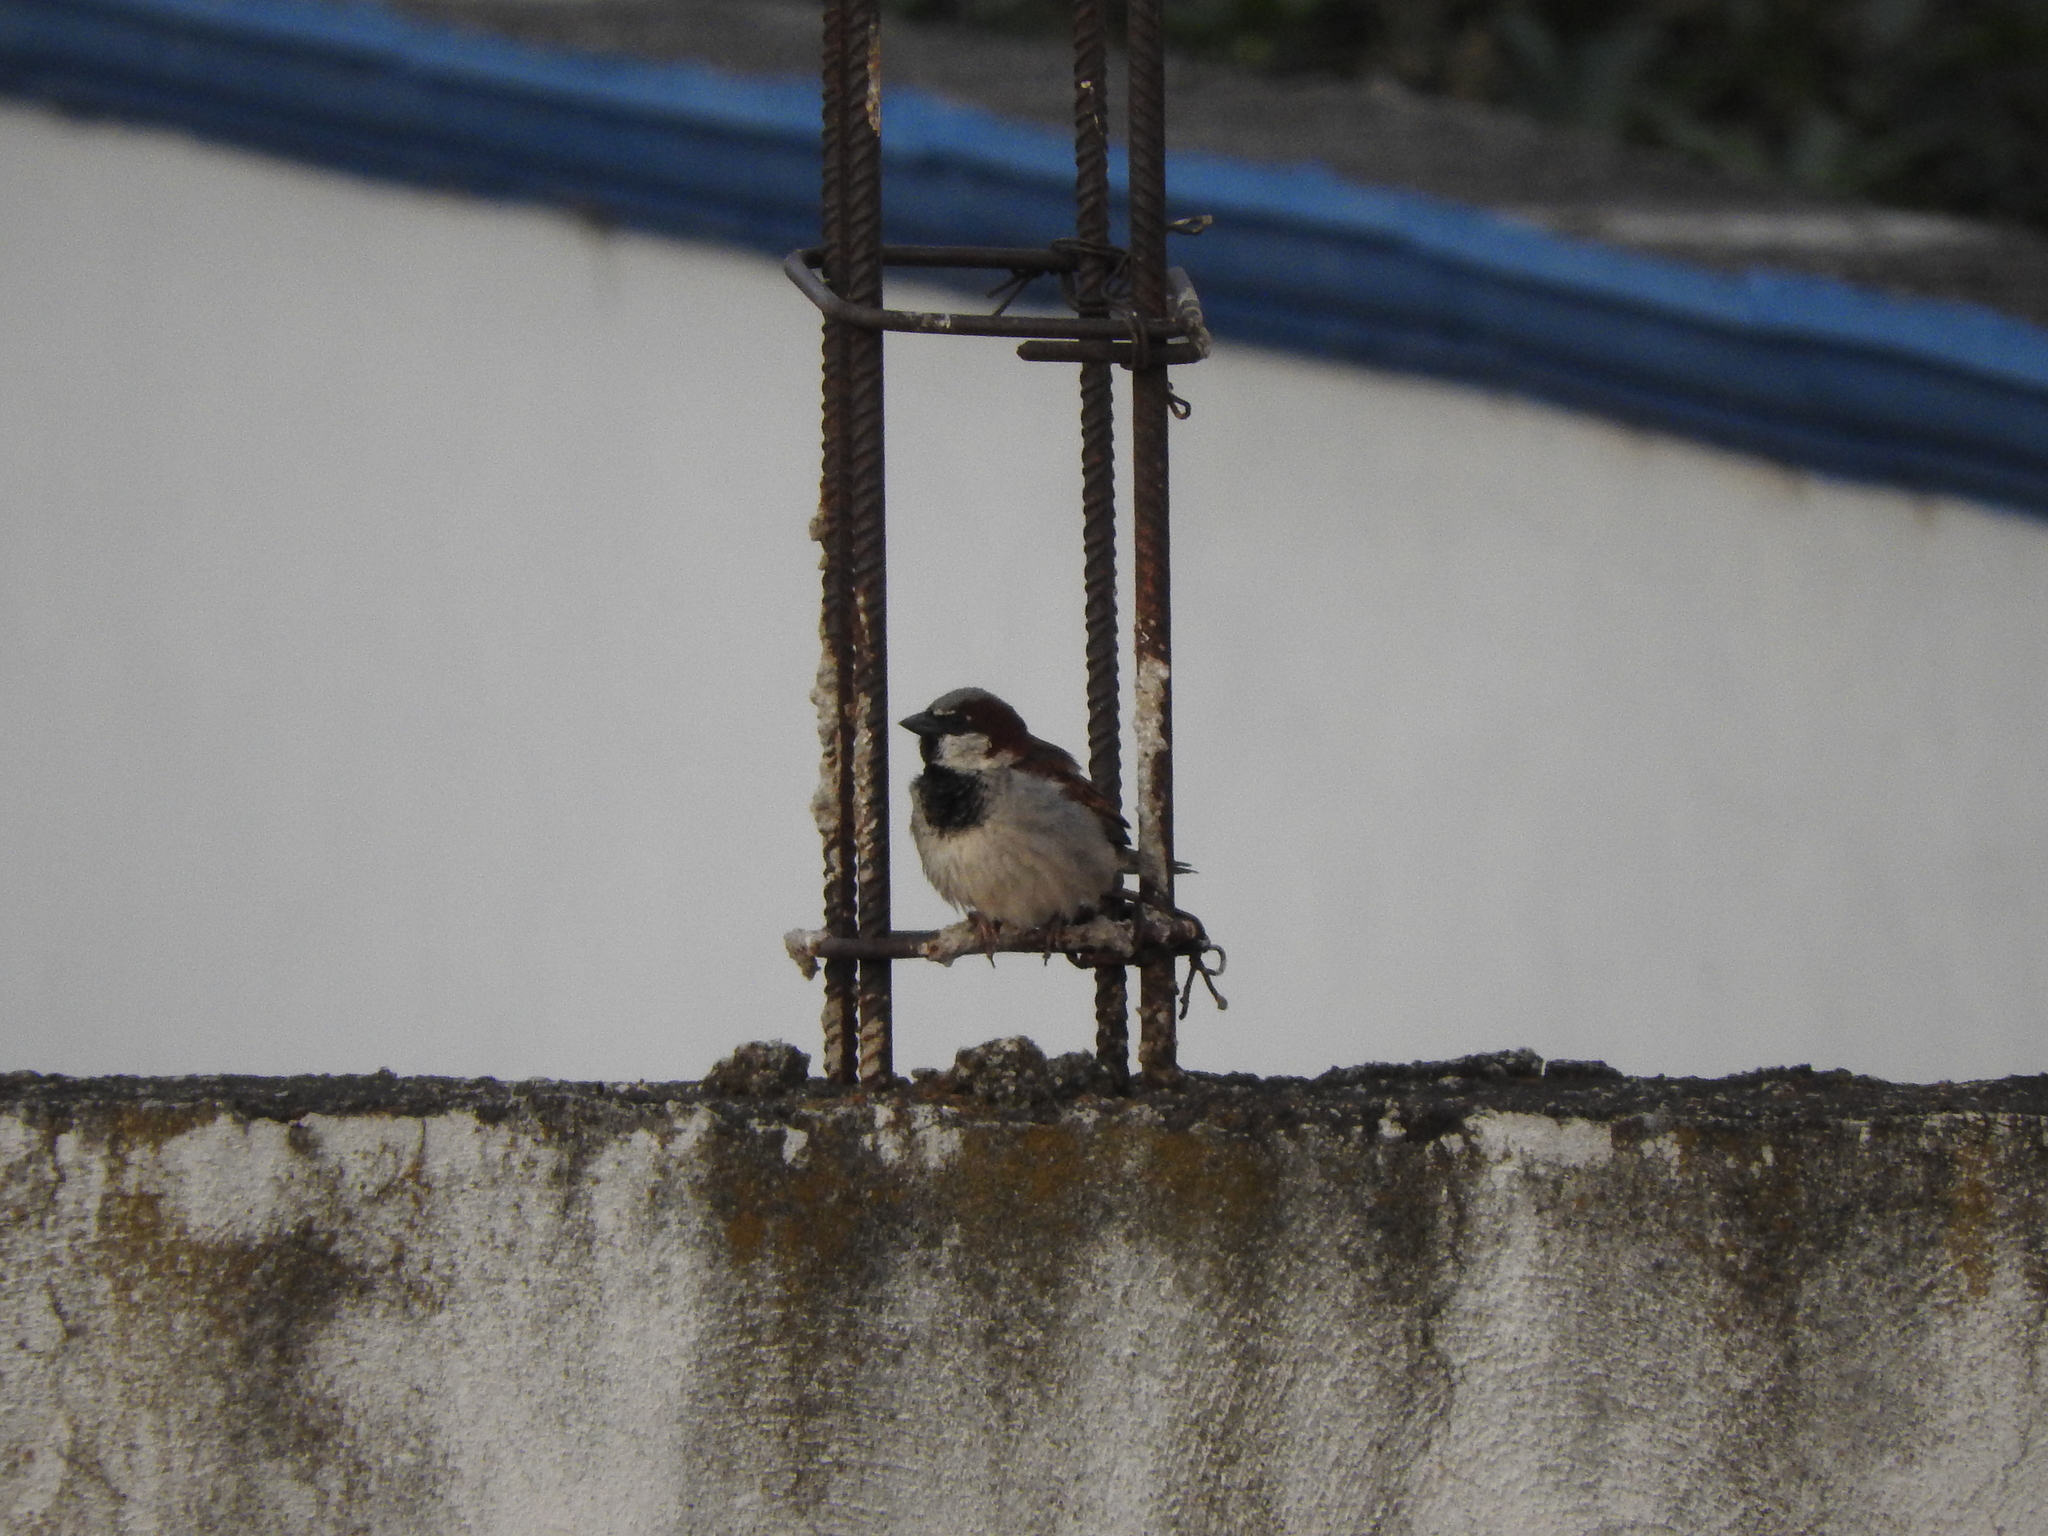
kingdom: Animalia
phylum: Chordata
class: Aves
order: Passeriformes
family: Passeridae
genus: Passer
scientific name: Passer domesticus
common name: House sparrow
